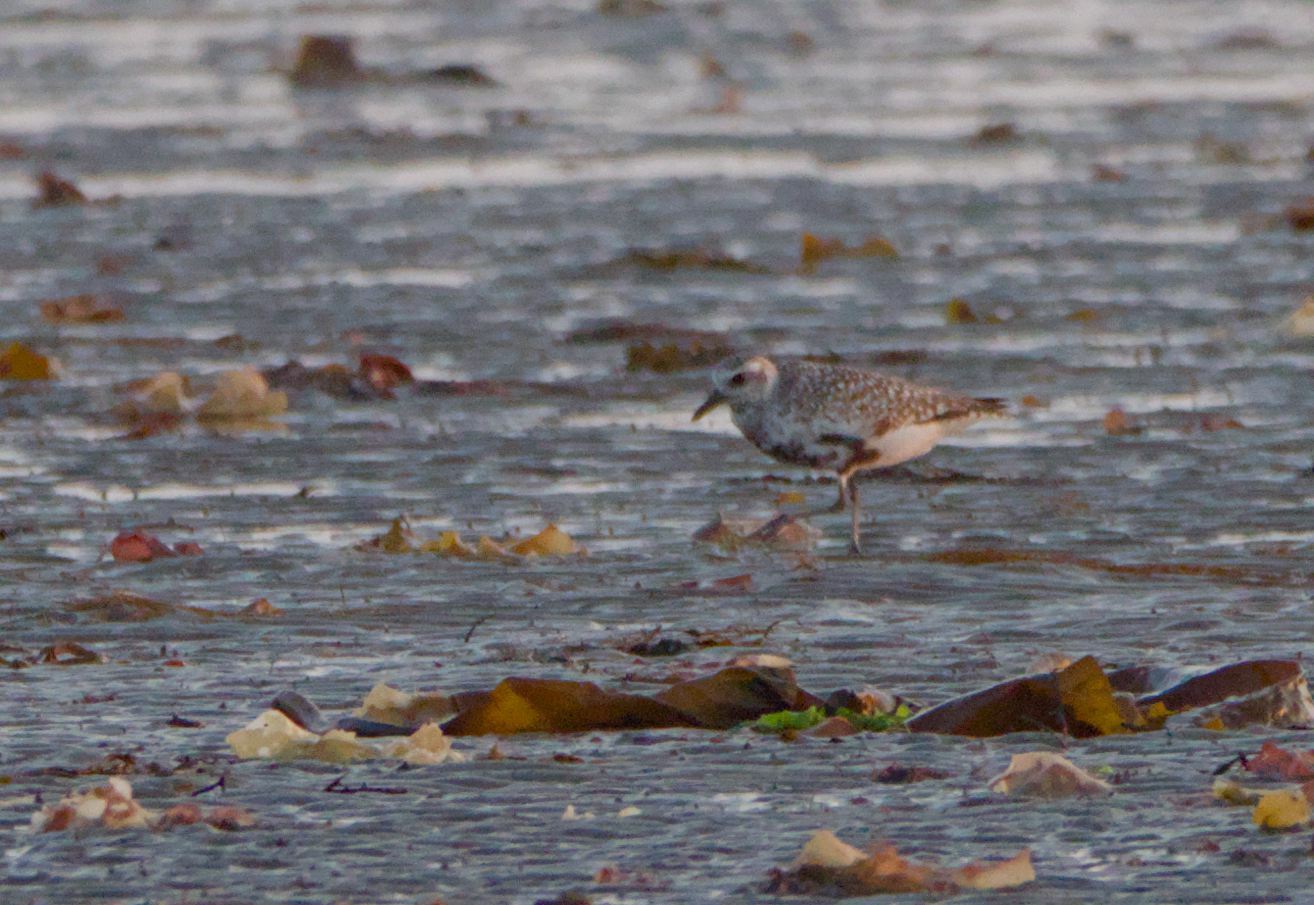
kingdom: Animalia
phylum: Chordata
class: Aves
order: Charadriiformes
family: Charadriidae
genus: Pluvialis
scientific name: Pluvialis squatarola
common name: Grey plover
